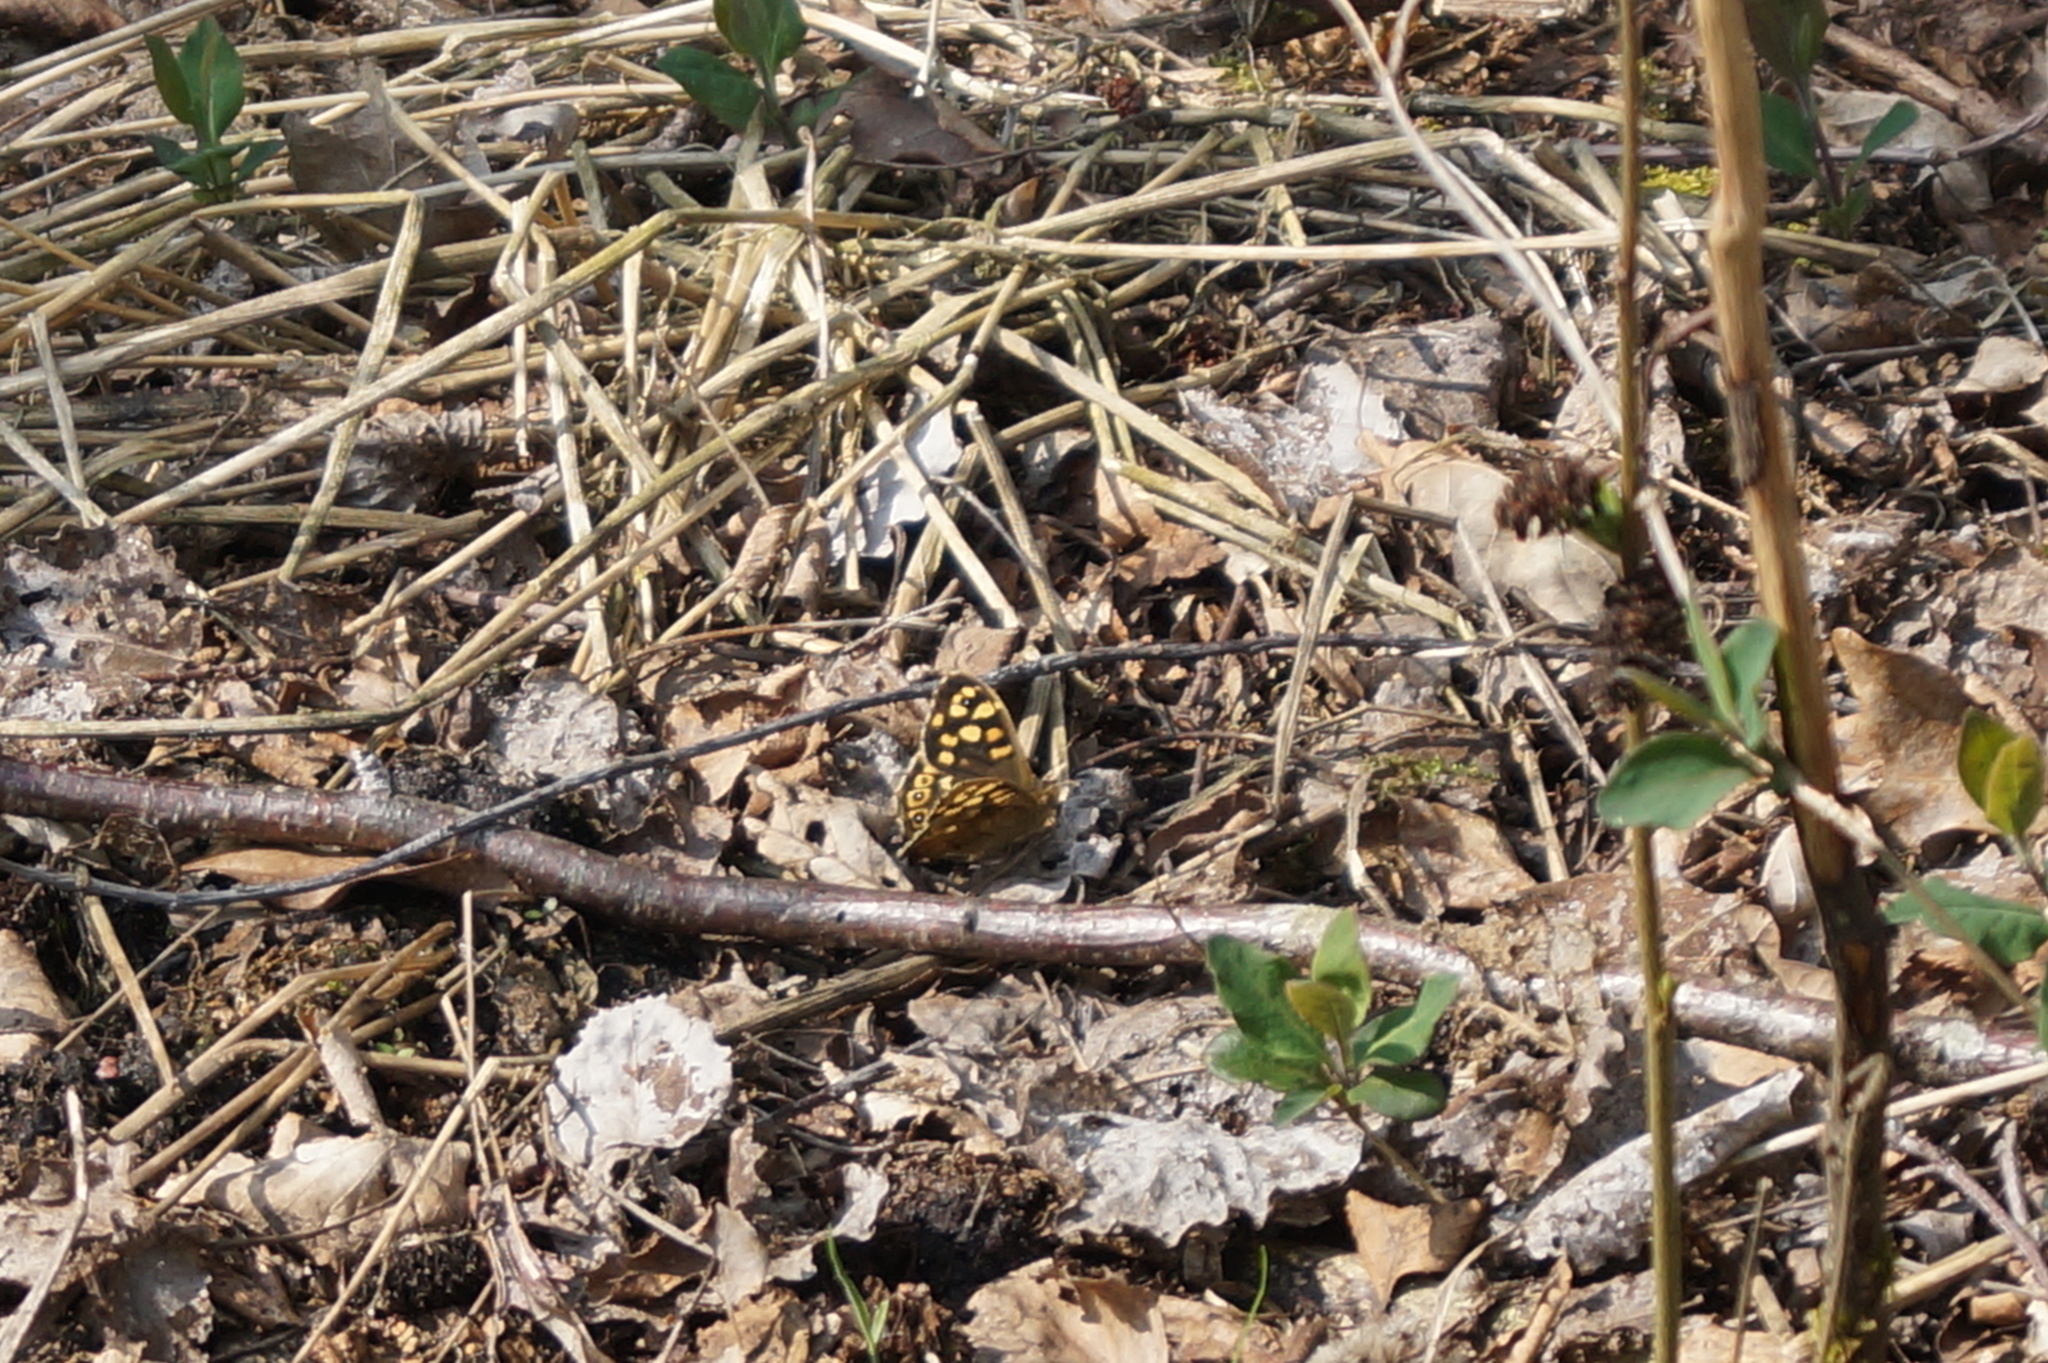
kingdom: Animalia
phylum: Arthropoda
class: Insecta
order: Lepidoptera
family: Nymphalidae
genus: Pararge
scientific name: Pararge aegeria
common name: Speckled wood
